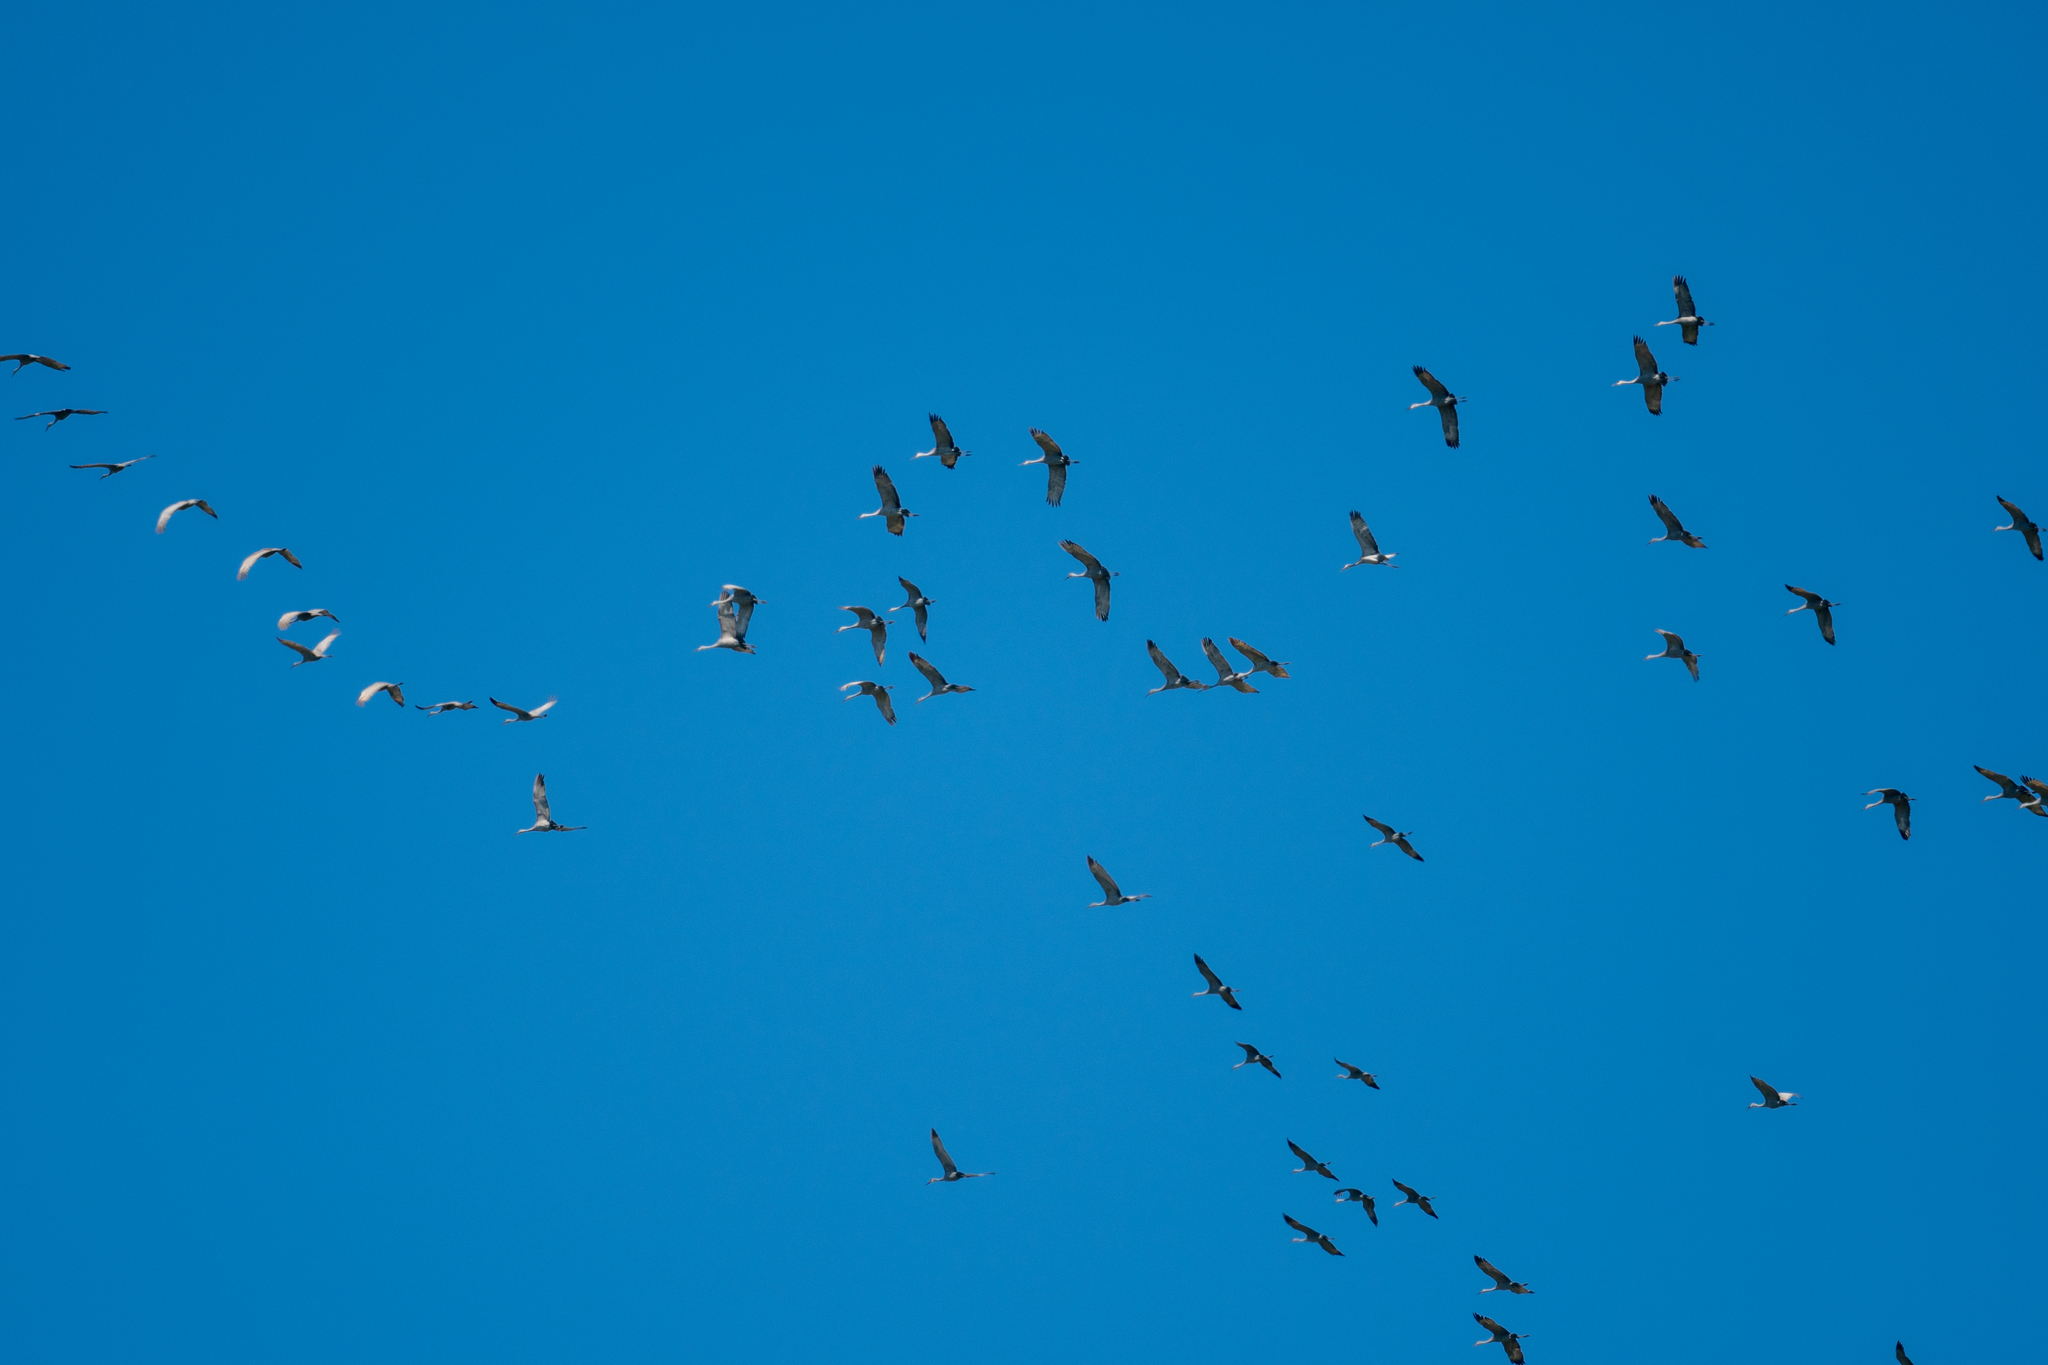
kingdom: Animalia
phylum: Chordata
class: Aves
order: Gruiformes
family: Gruidae
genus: Grus
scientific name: Grus canadensis
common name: Sandhill crane
